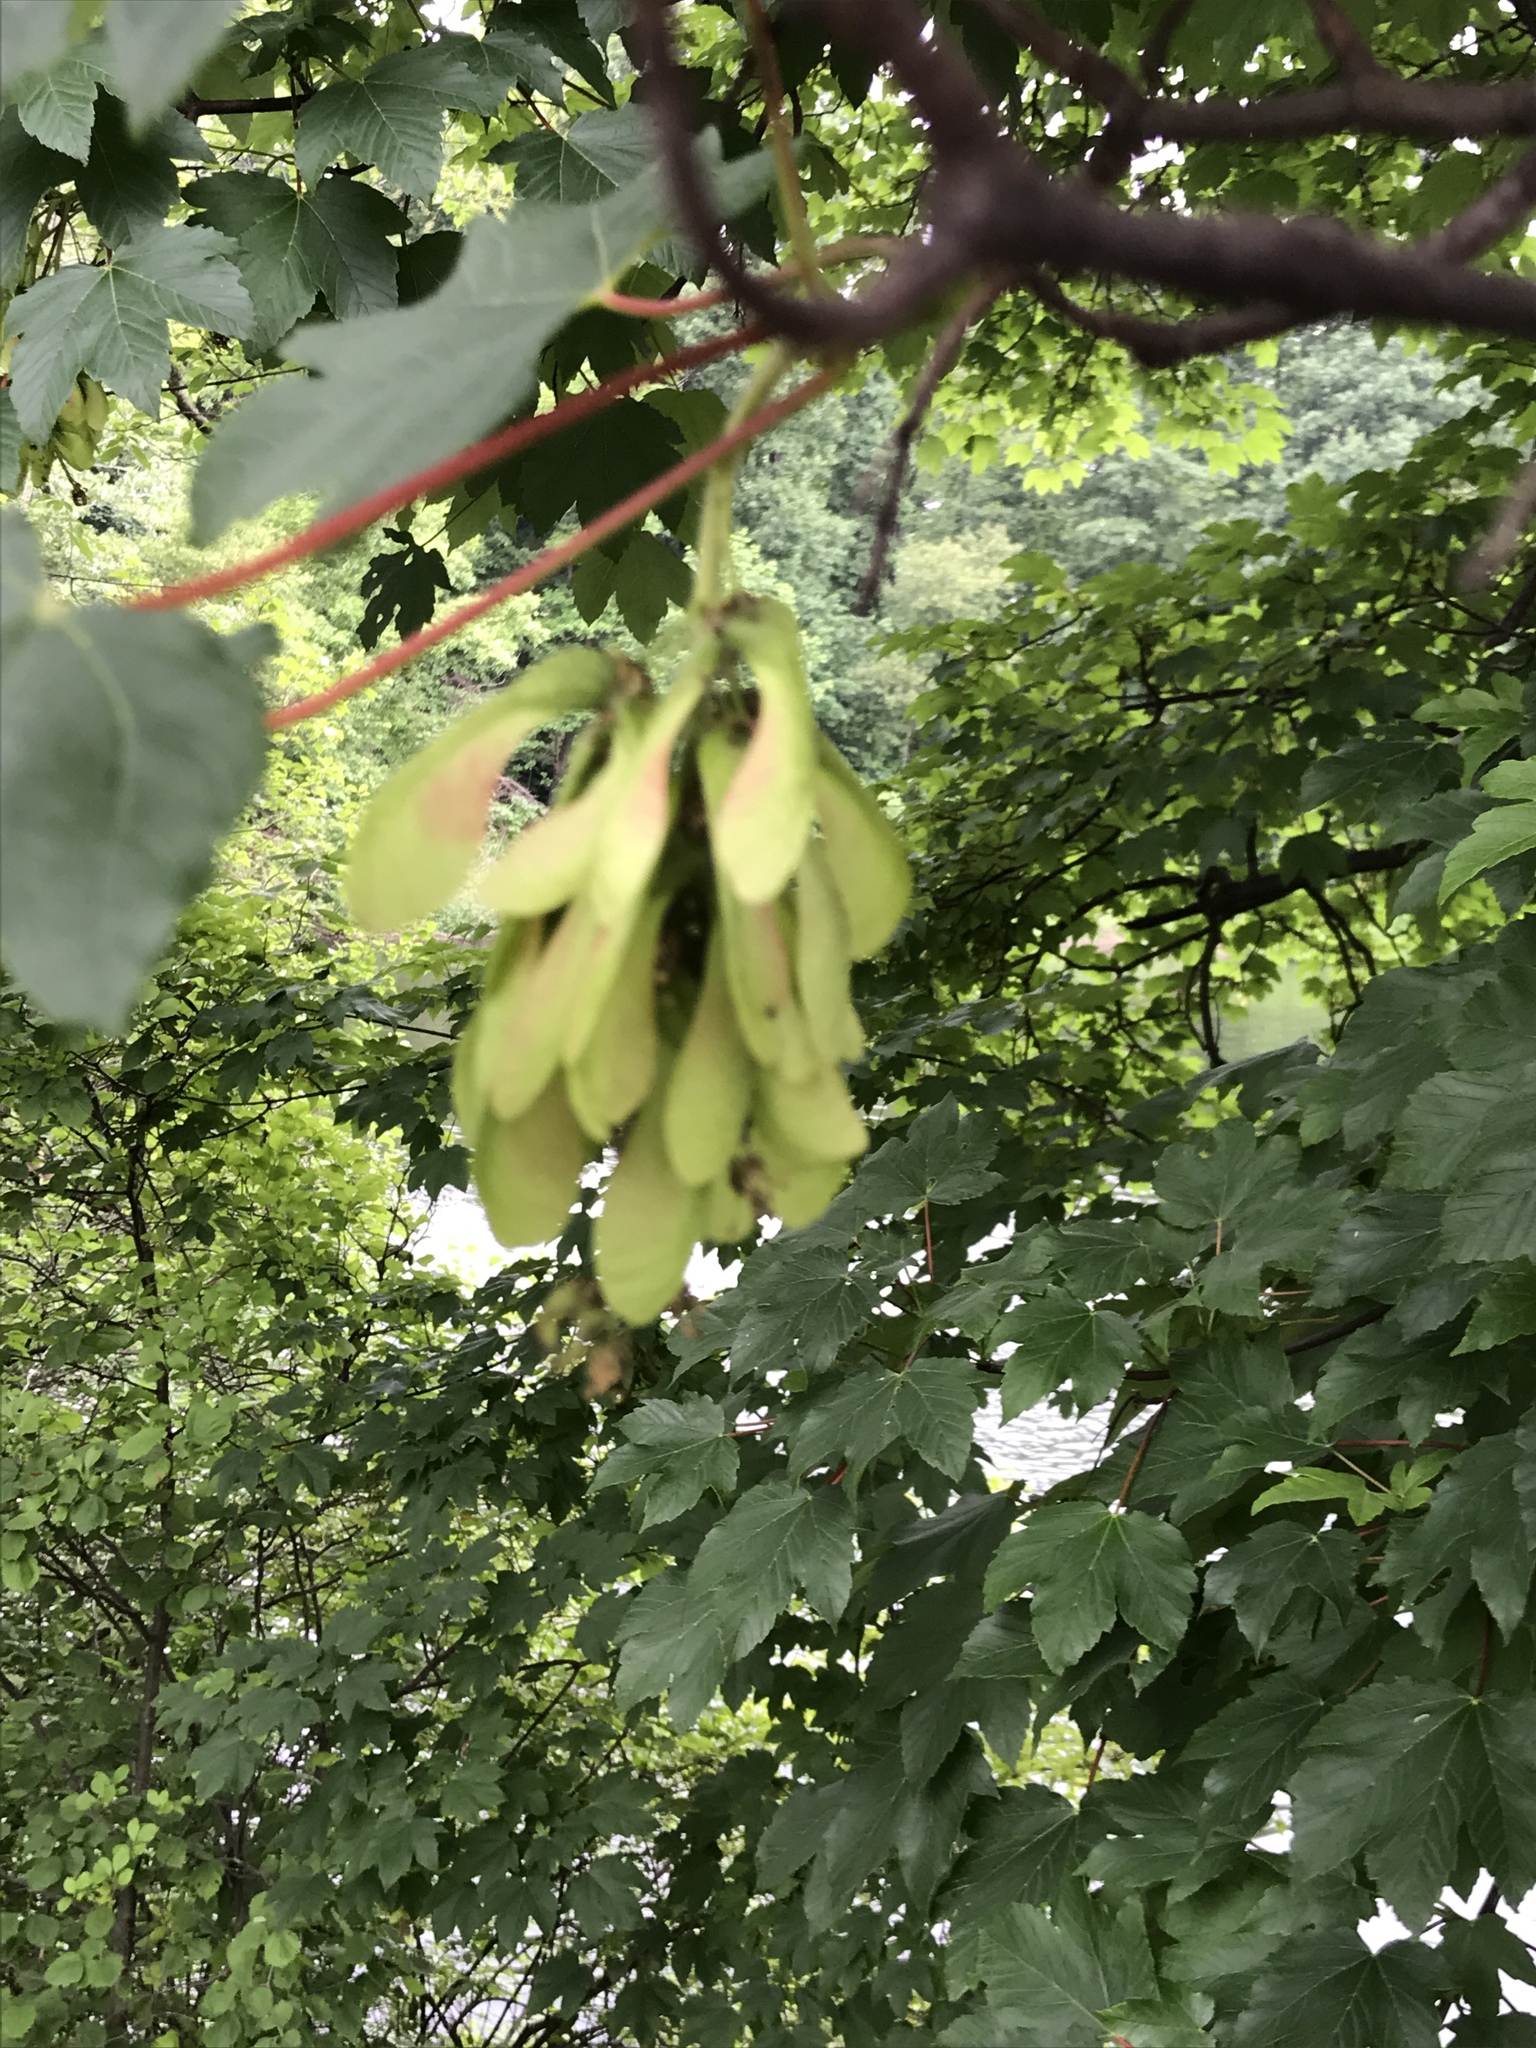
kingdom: Plantae
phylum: Tracheophyta
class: Magnoliopsida
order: Sapindales
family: Sapindaceae
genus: Acer
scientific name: Acer pseudoplatanus
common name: Sycamore
